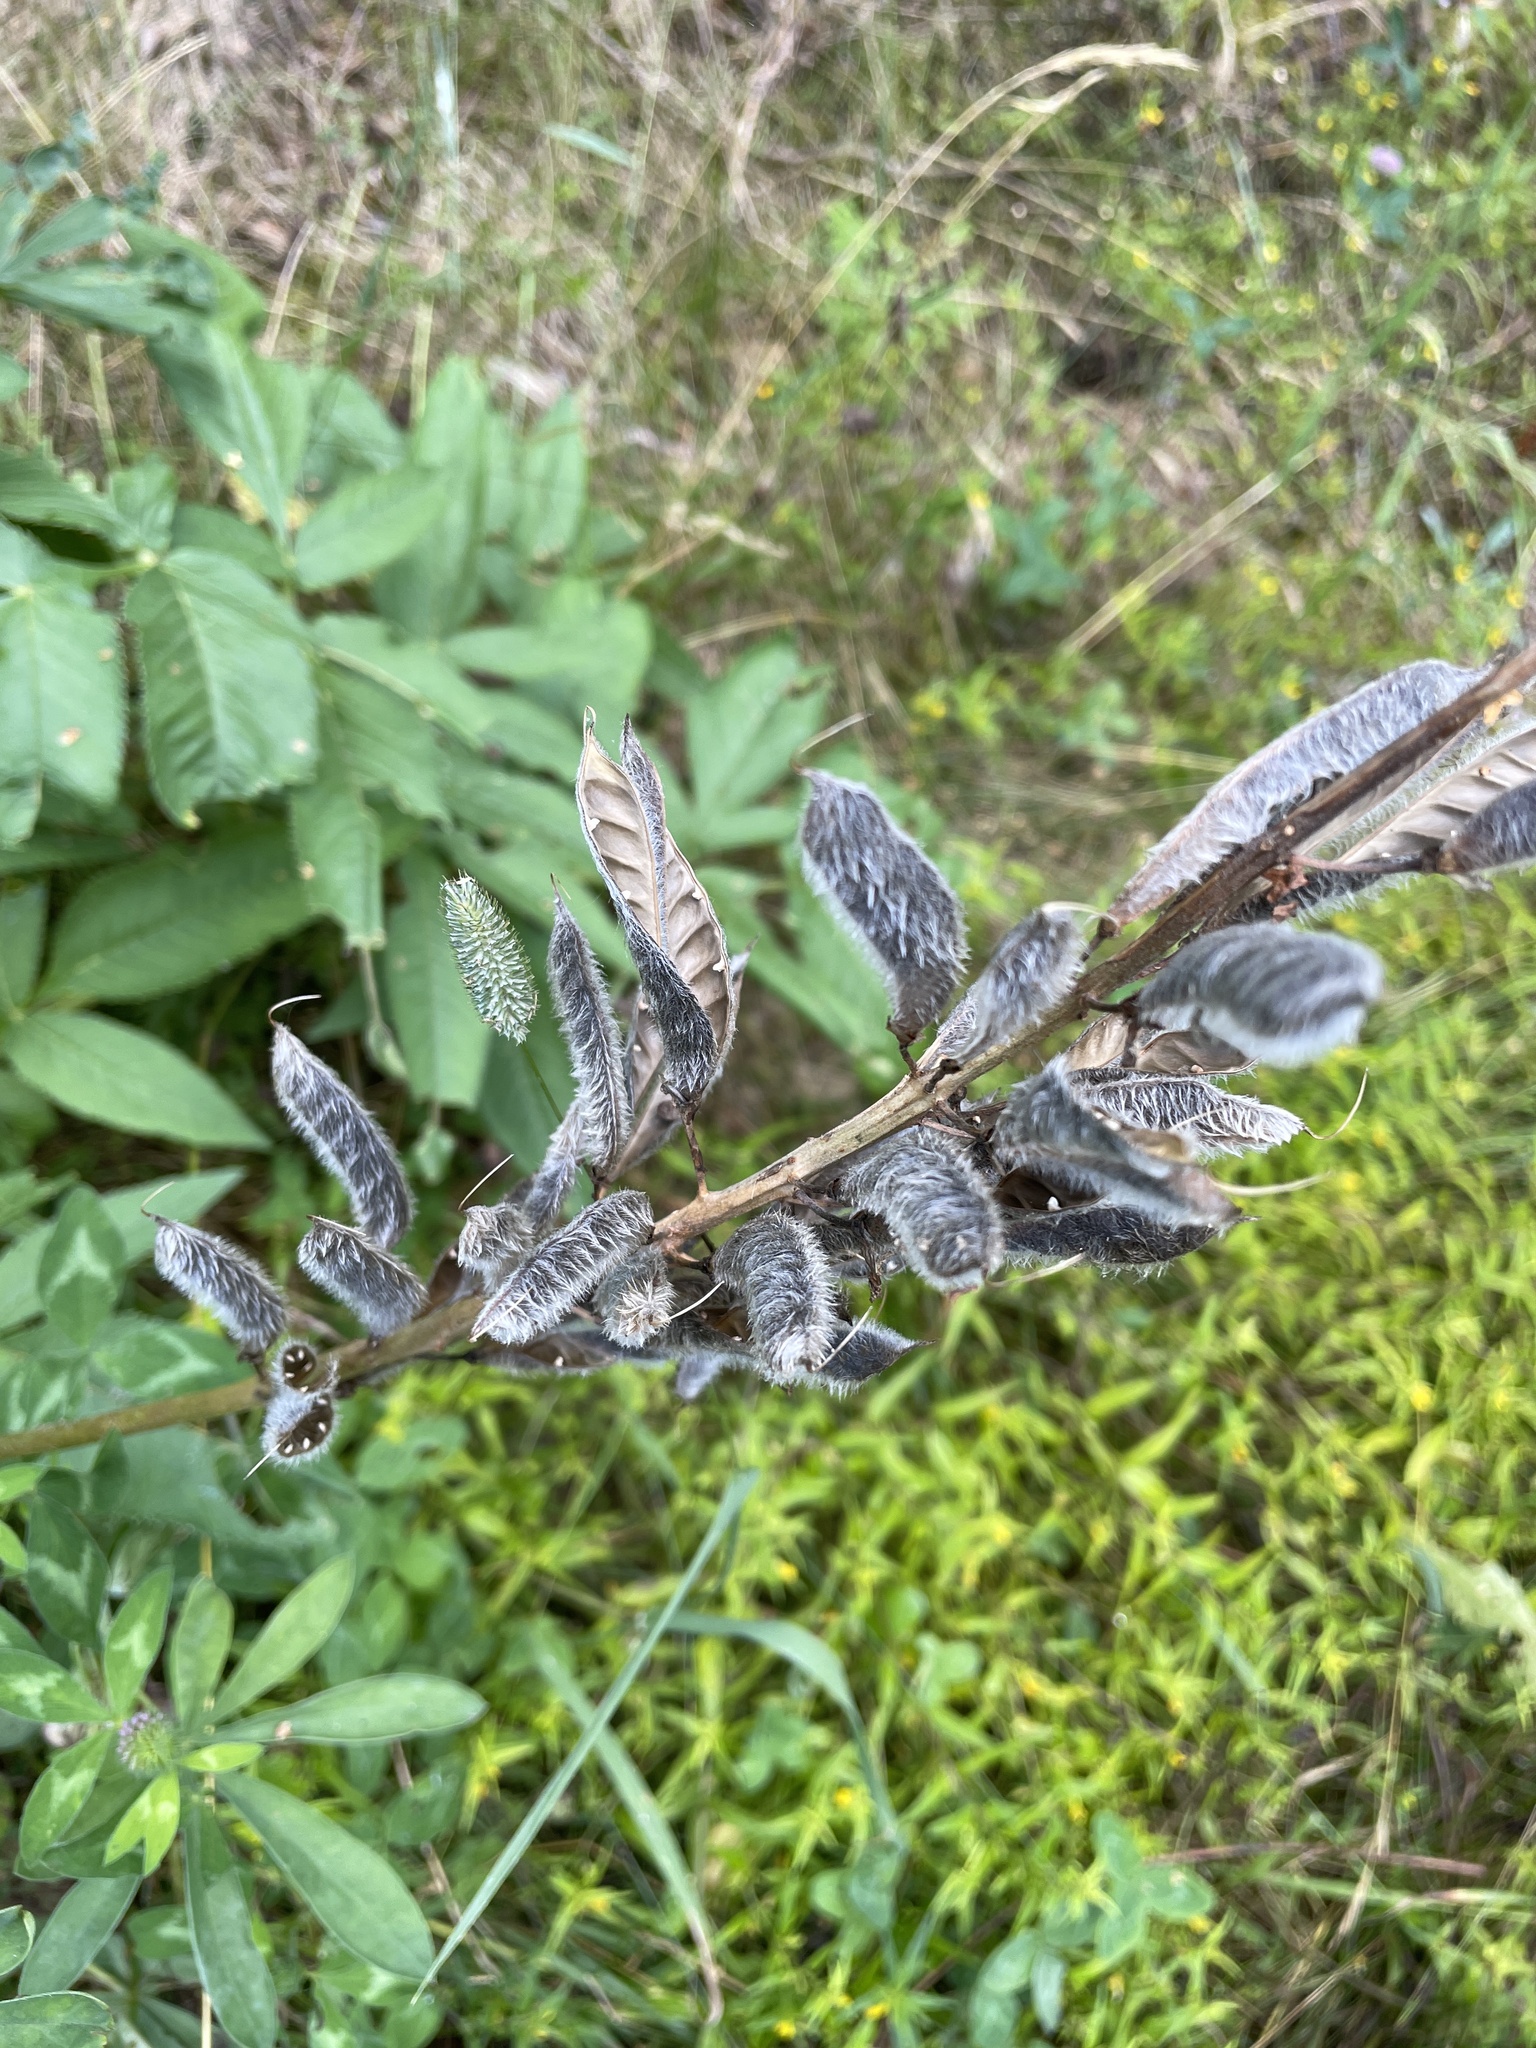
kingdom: Plantae
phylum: Tracheophyta
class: Magnoliopsida
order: Fabales
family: Fabaceae
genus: Lupinus
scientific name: Lupinus polyphyllus
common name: Garden lupin
